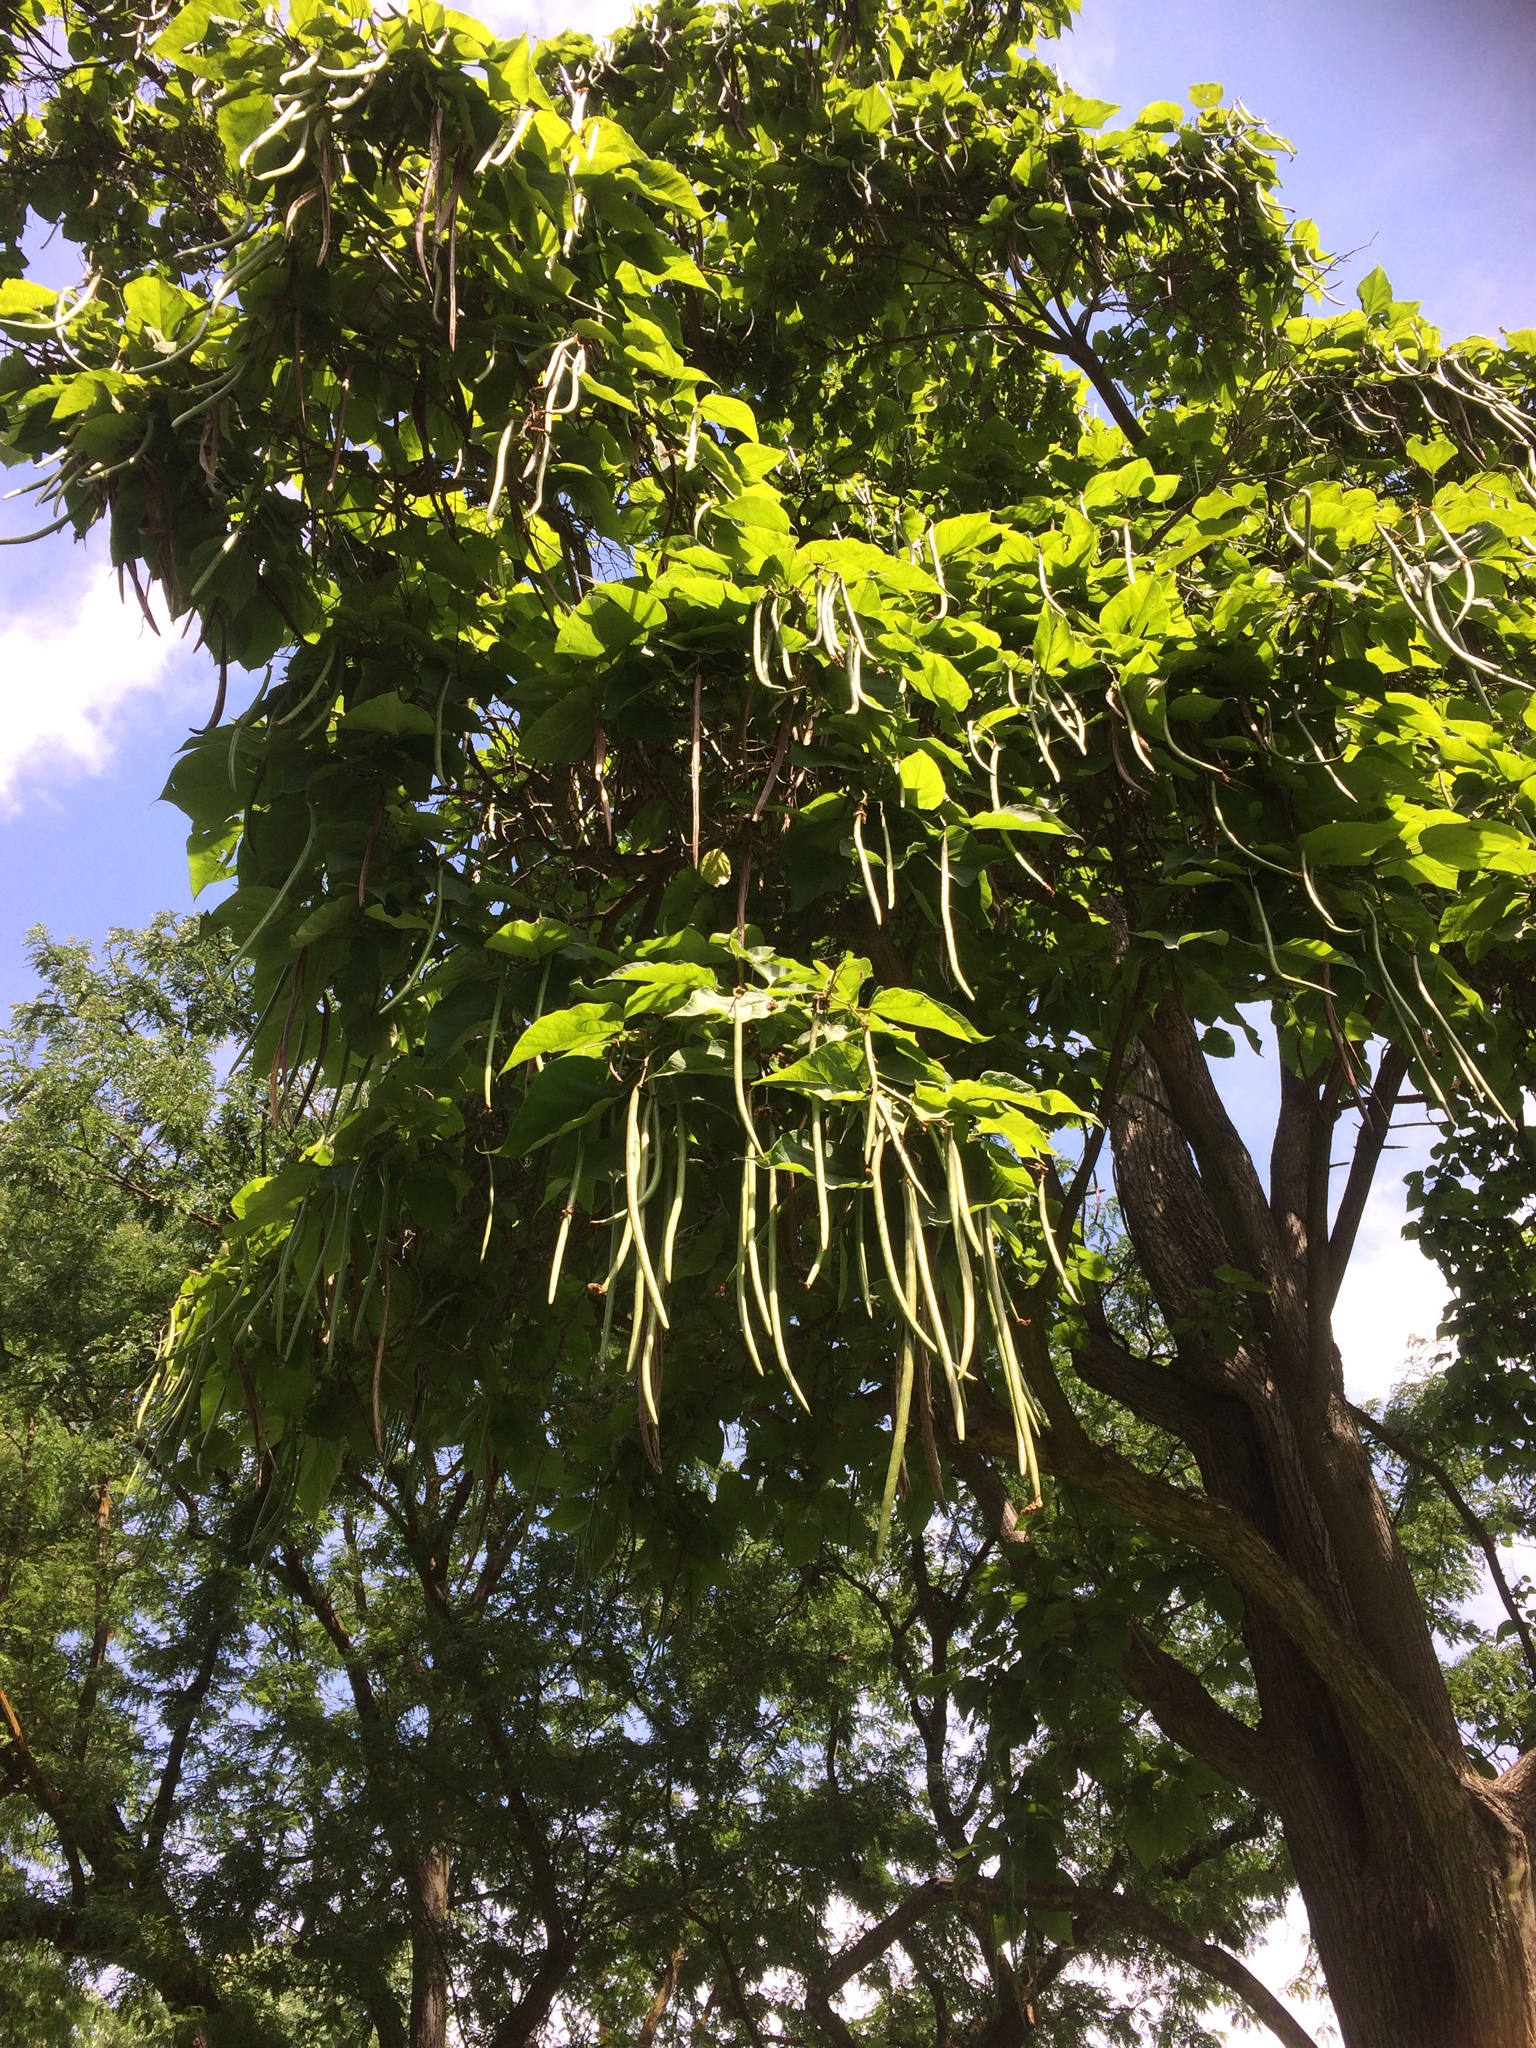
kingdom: Plantae
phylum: Tracheophyta
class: Magnoliopsida
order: Lamiales
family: Bignoniaceae
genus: Catalpa
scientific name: Catalpa speciosa
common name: Northern catalpa
